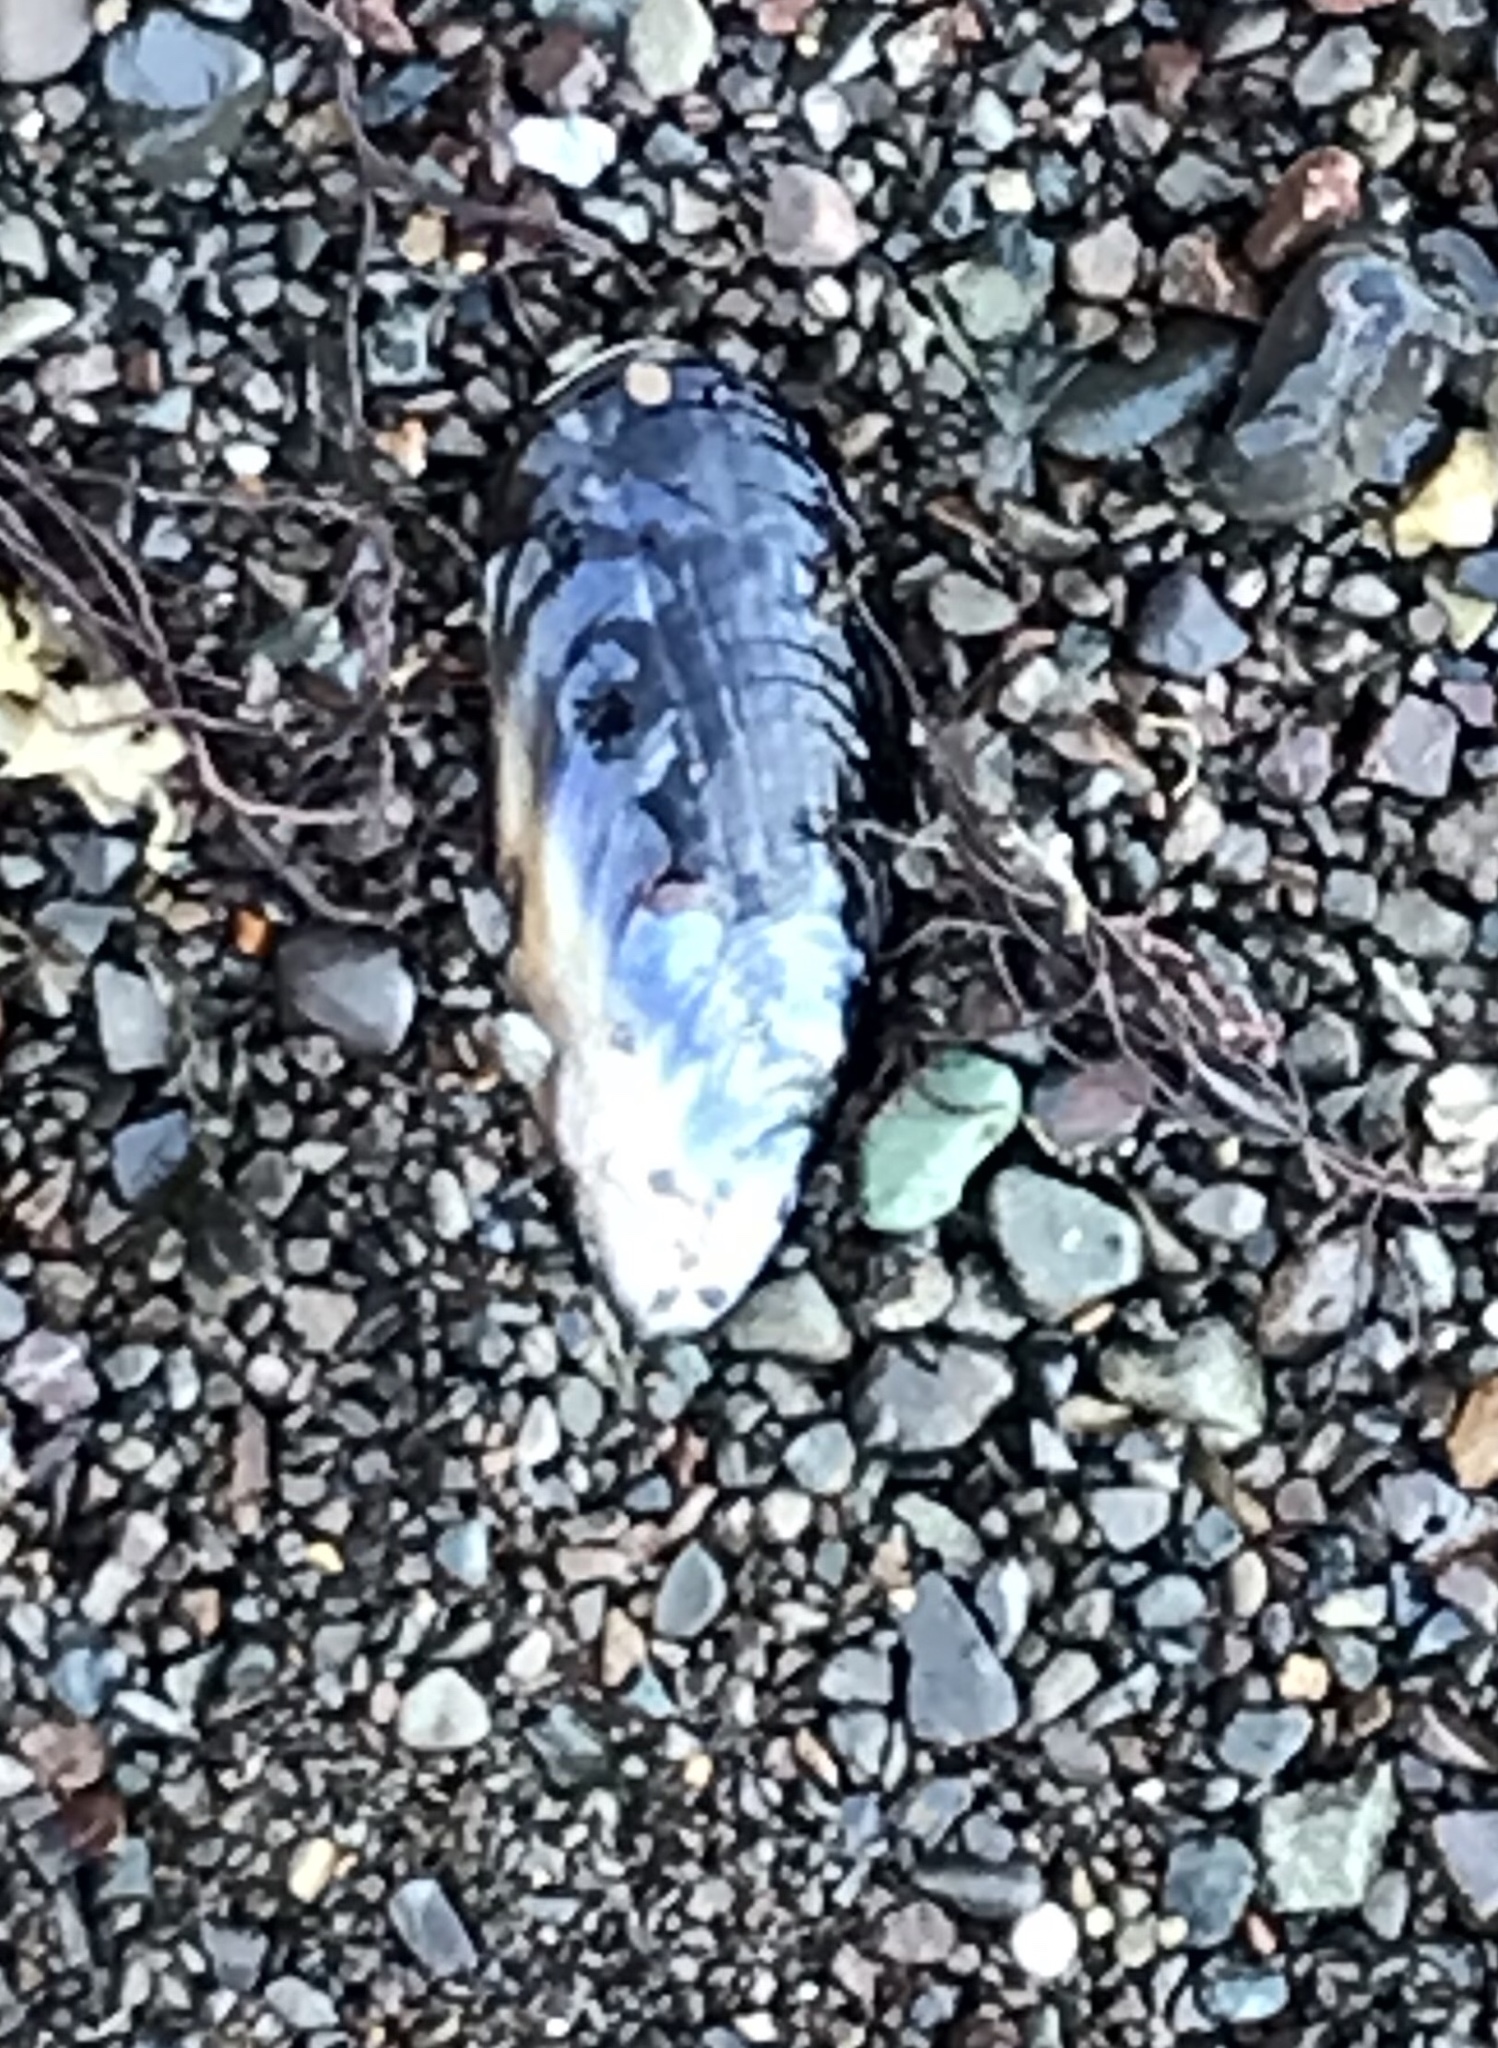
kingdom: Animalia
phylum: Mollusca
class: Bivalvia
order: Mytilida
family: Mytilidae
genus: Mytilus
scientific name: Mytilus californianus
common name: California mussel
